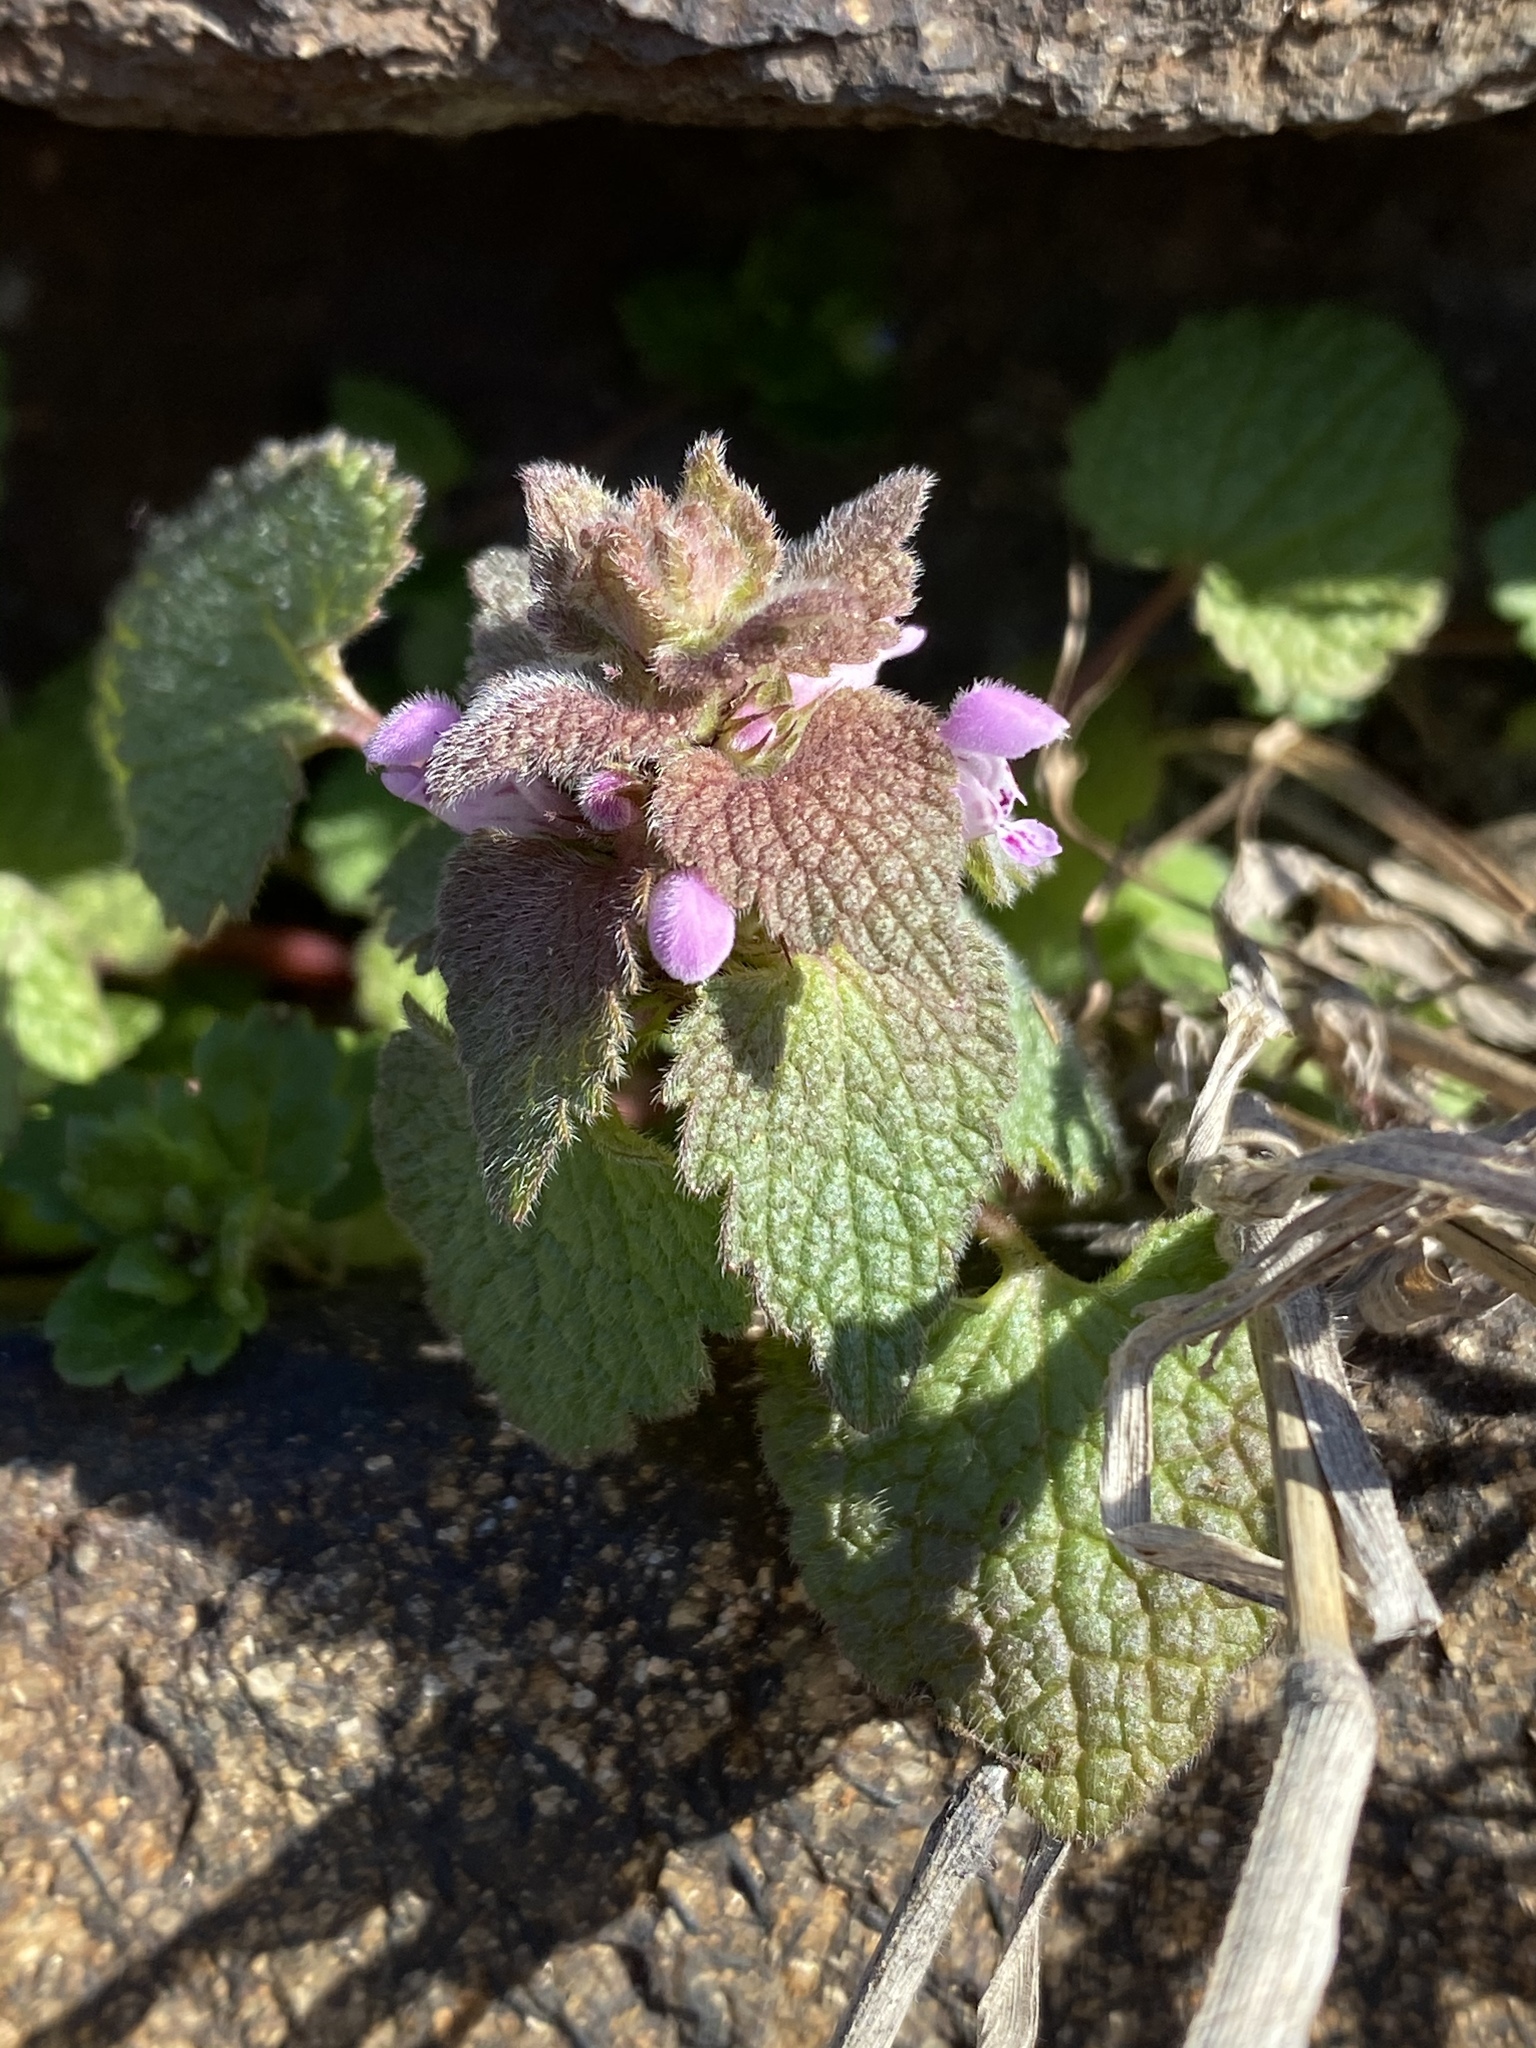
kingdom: Plantae
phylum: Tracheophyta
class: Magnoliopsida
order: Lamiales
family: Lamiaceae
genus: Lamium
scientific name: Lamium purpureum
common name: Red dead-nettle
